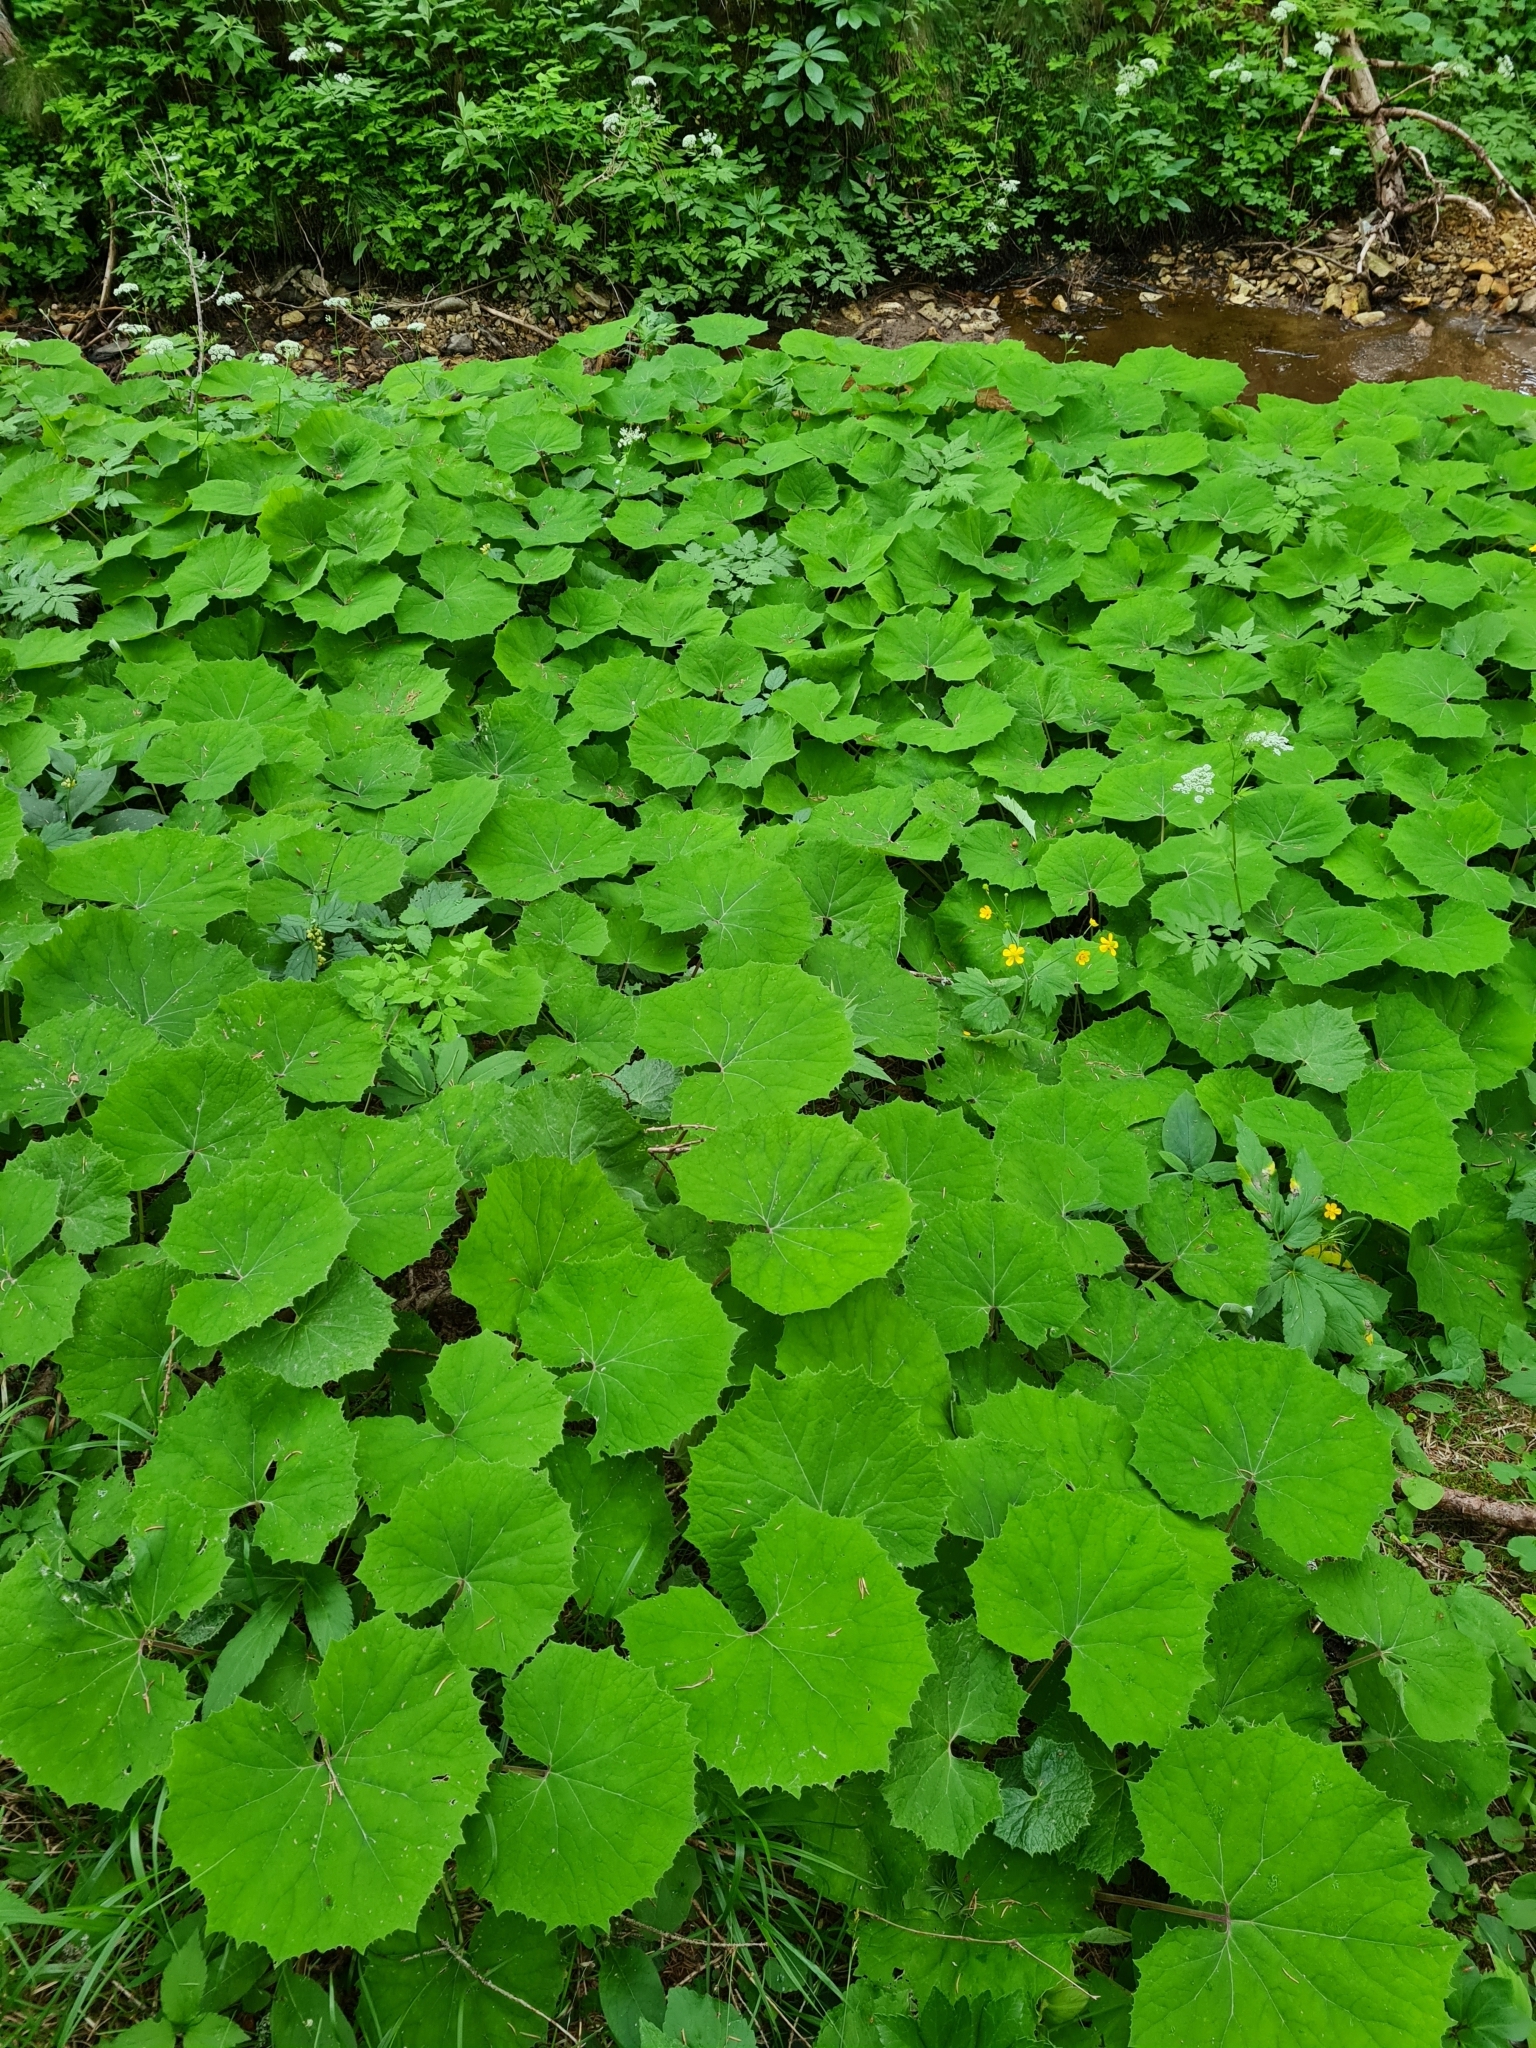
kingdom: Plantae
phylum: Tracheophyta
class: Magnoliopsida
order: Asterales
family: Asteraceae
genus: Petasites
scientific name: Petasites albus
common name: White butterbur
